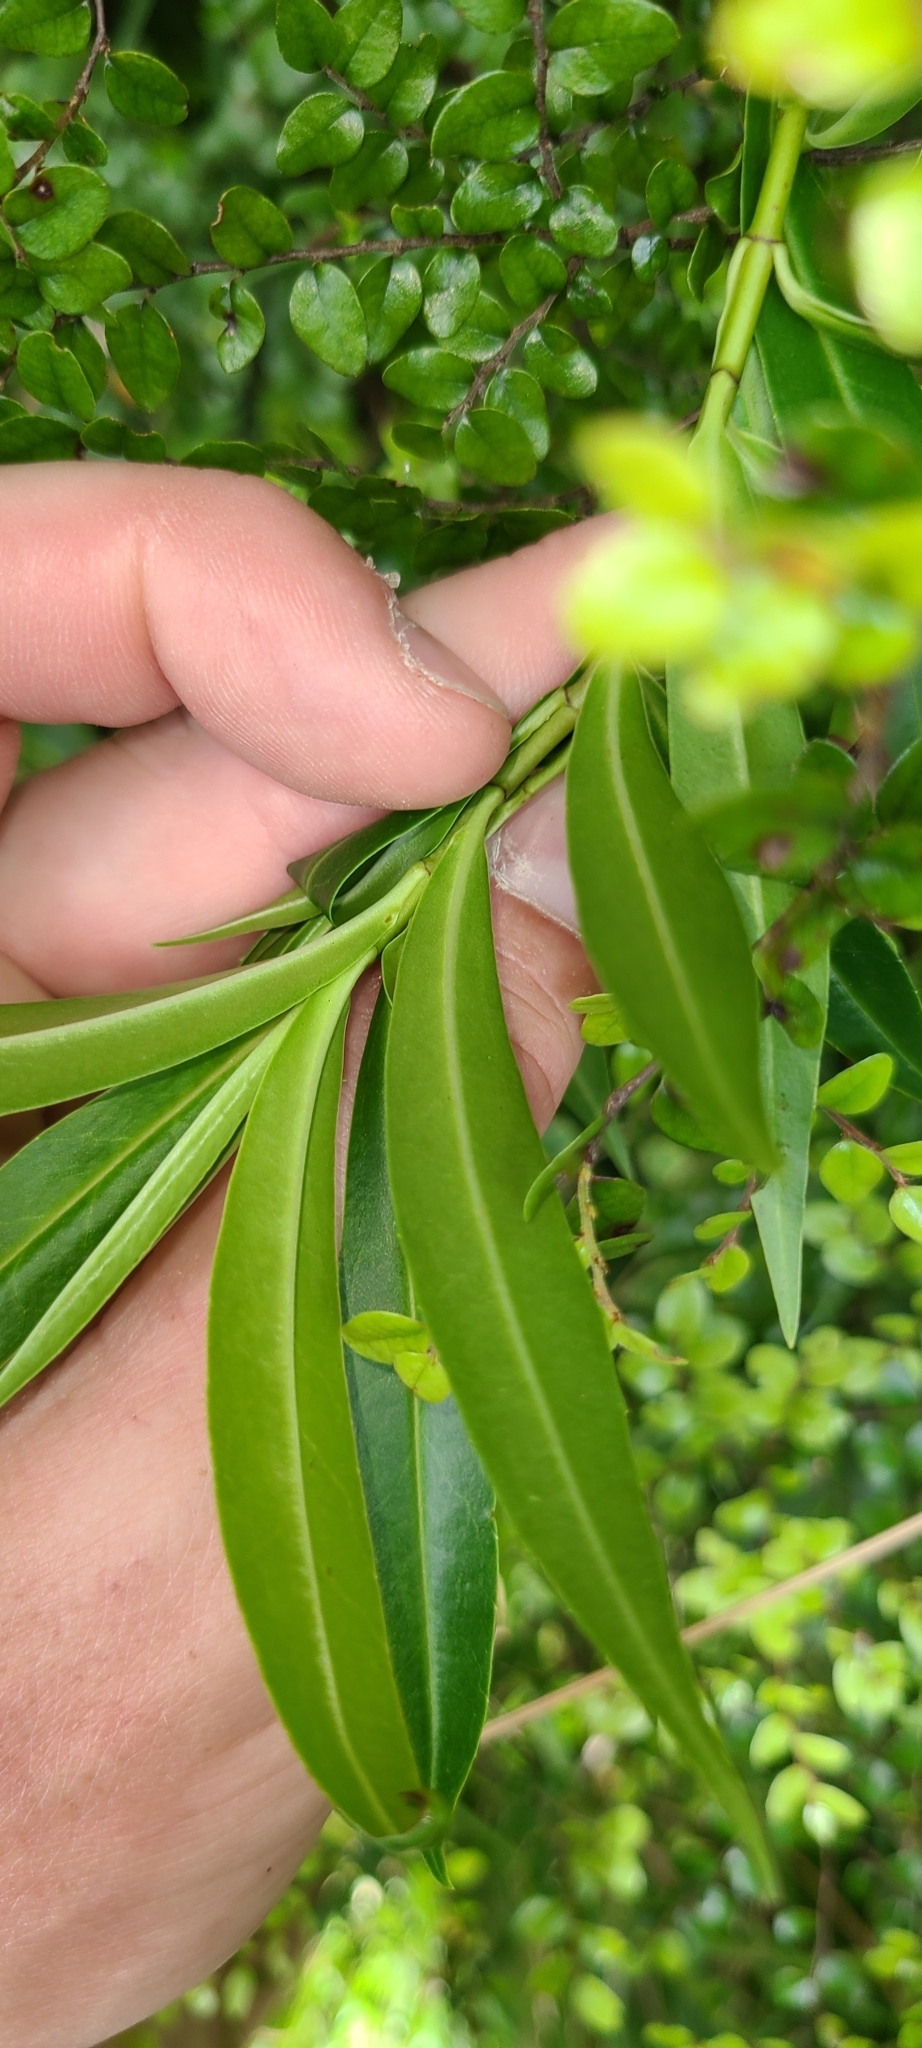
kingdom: Plantae
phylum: Tracheophyta
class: Magnoliopsida
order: Lamiales
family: Plantaginaceae
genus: Veronica
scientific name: Veronica salicifolia
